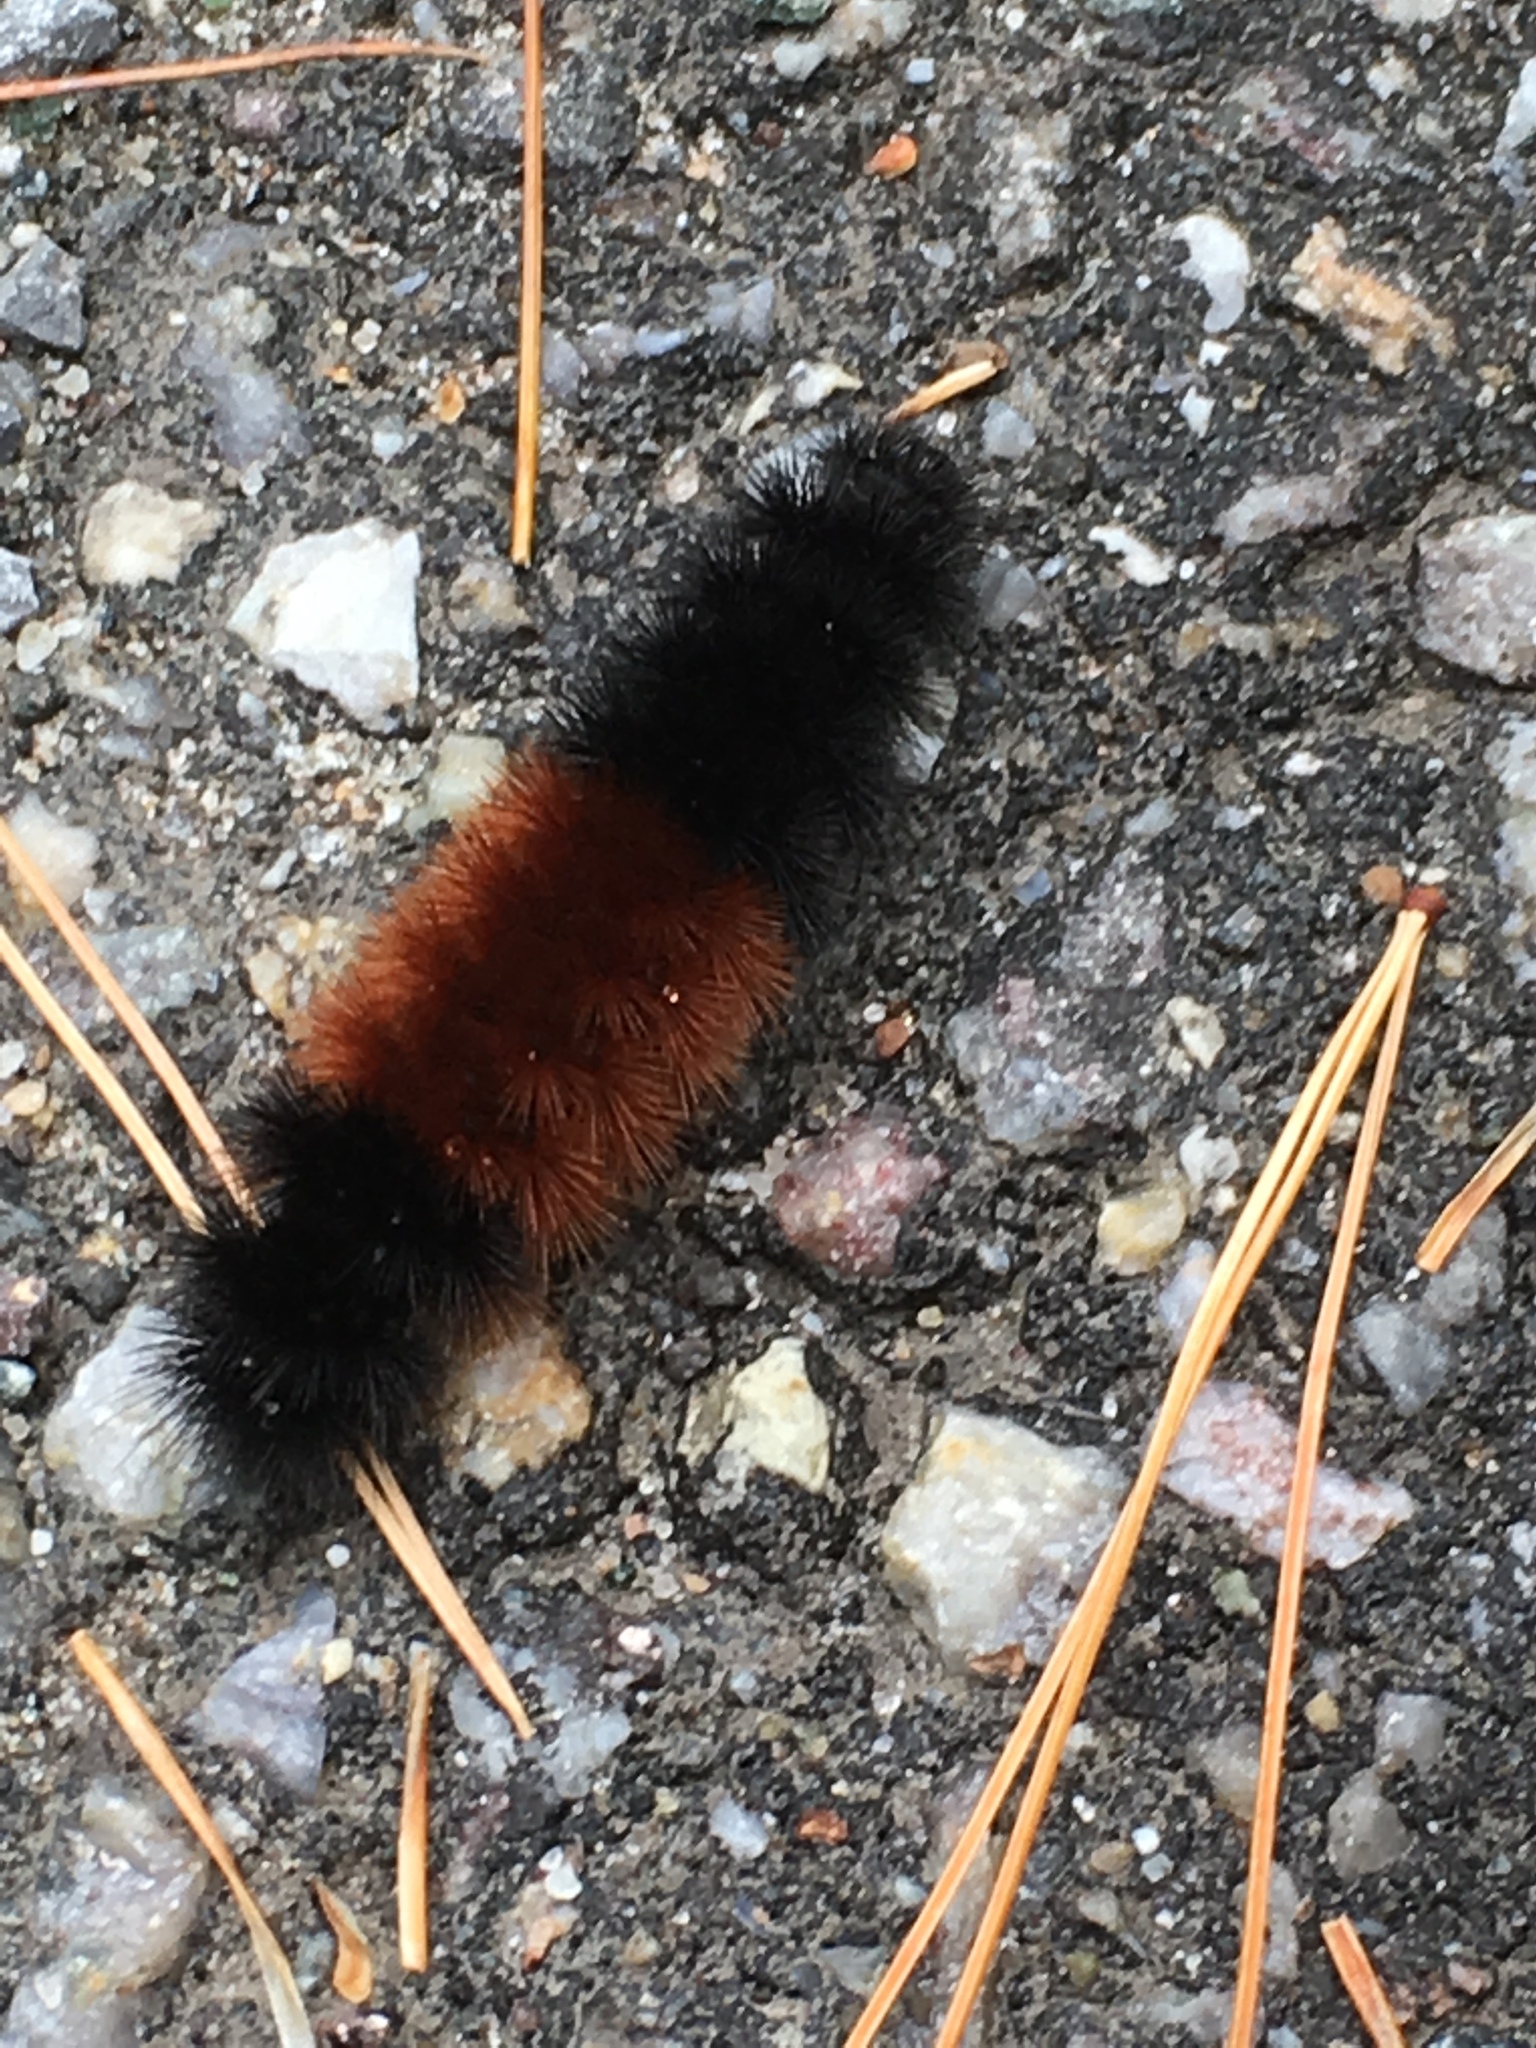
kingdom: Animalia
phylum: Arthropoda
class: Insecta
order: Lepidoptera
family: Erebidae
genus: Pyrrharctia
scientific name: Pyrrharctia isabella
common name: Isabella tiger moth
